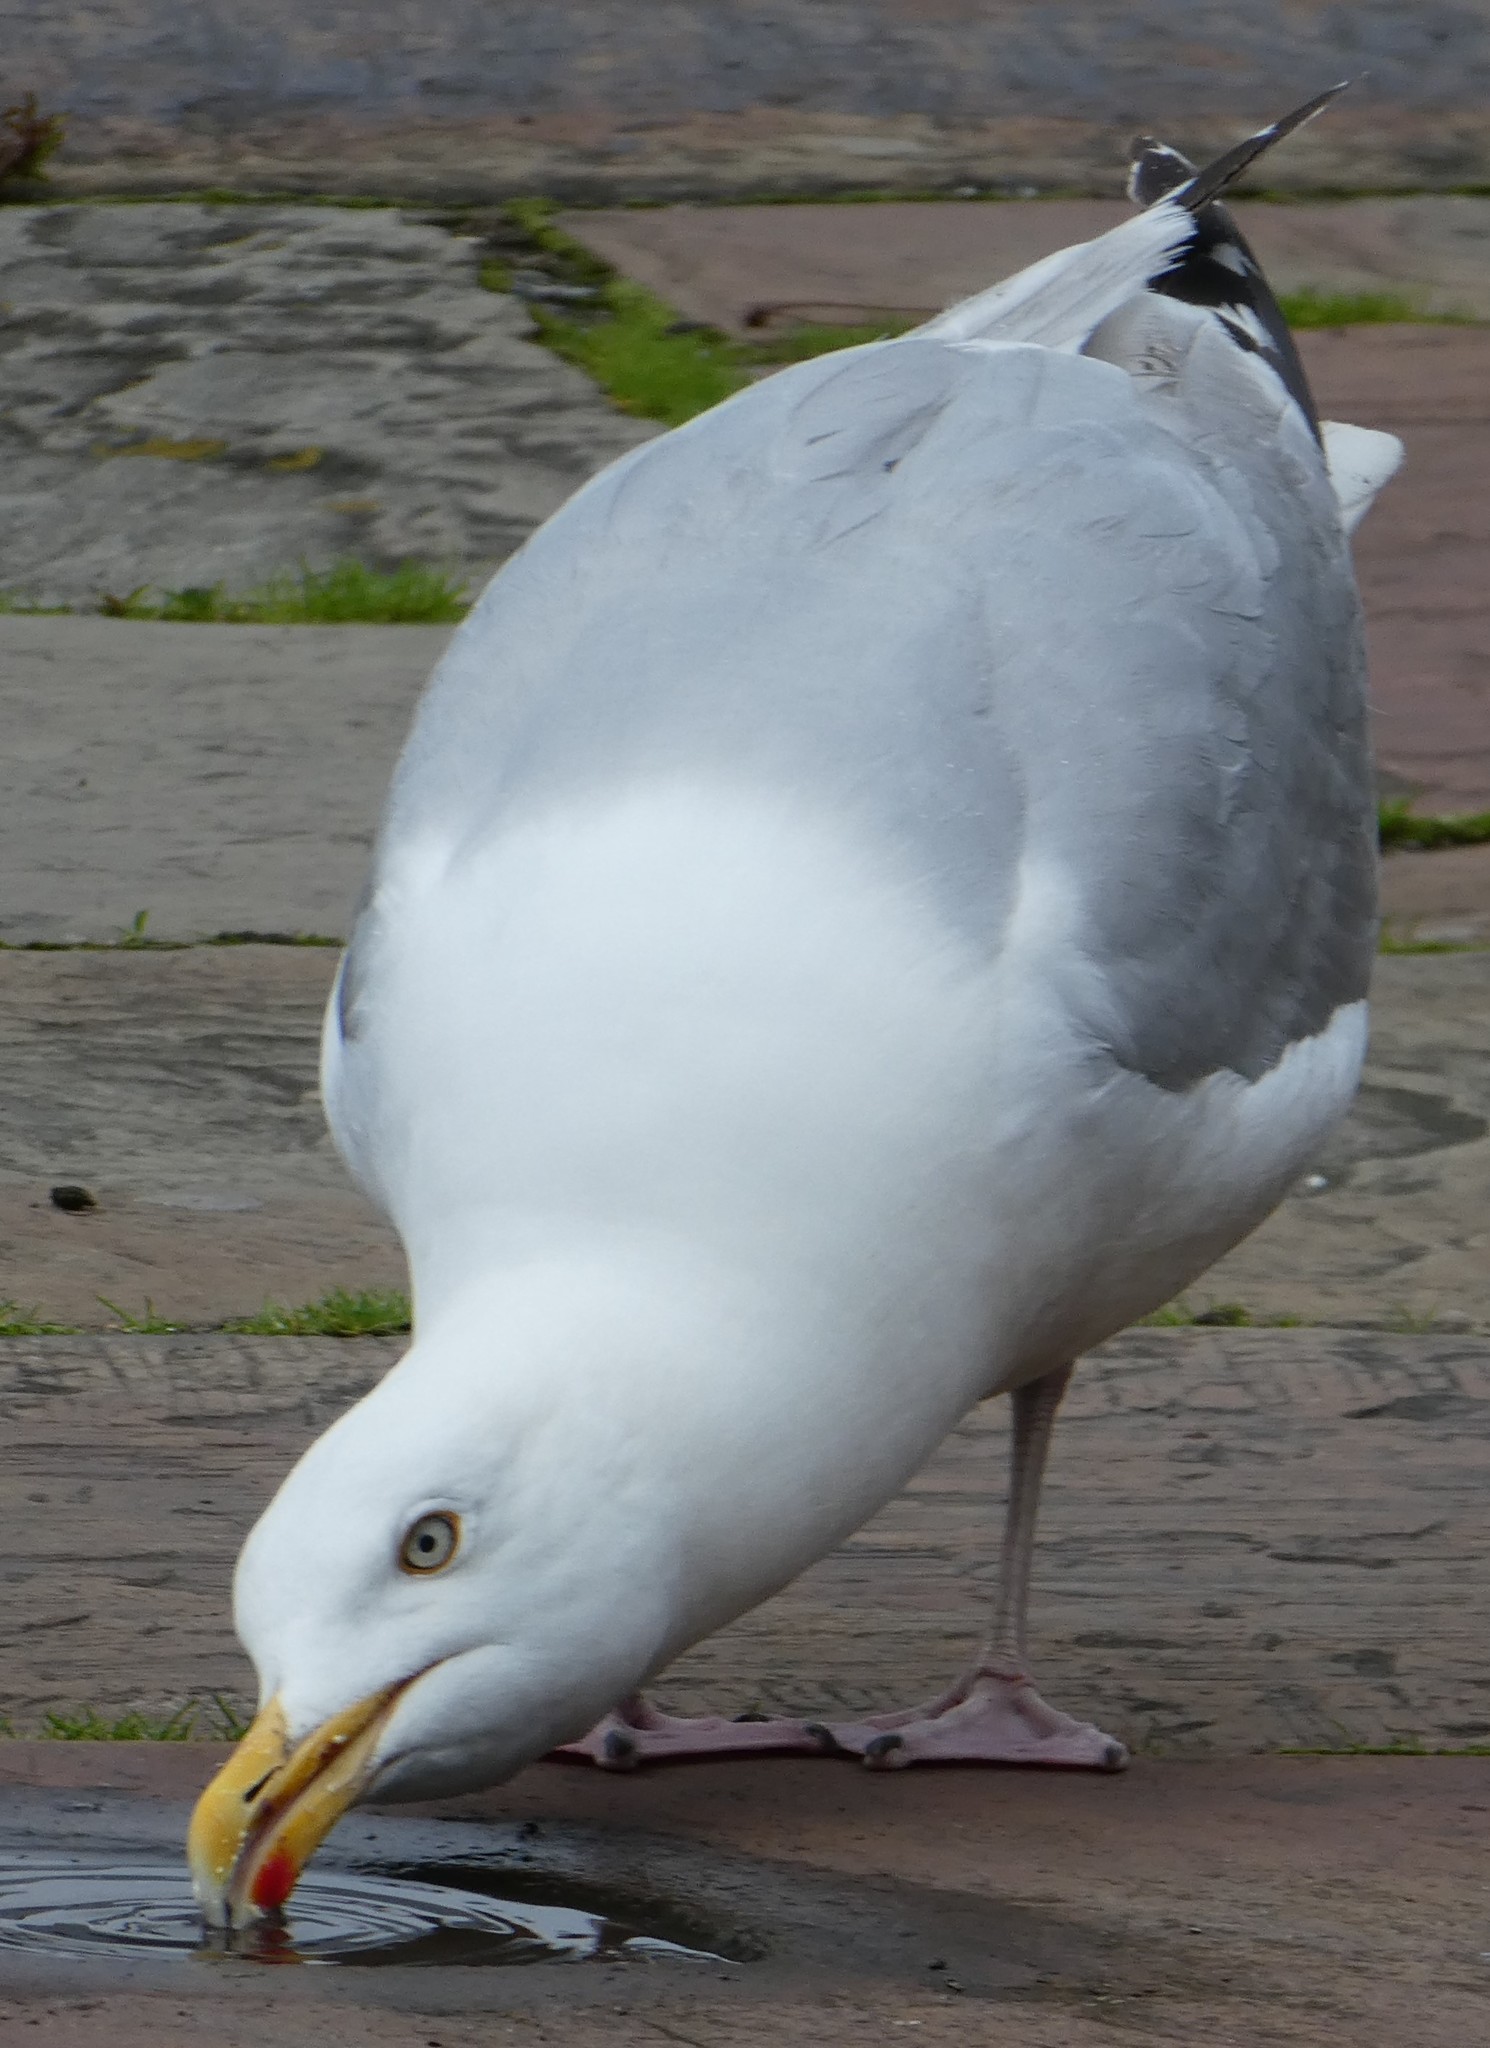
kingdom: Animalia
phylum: Chordata
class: Aves
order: Charadriiformes
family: Laridae
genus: Larus
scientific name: Larus argentatus
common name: Herring gull
